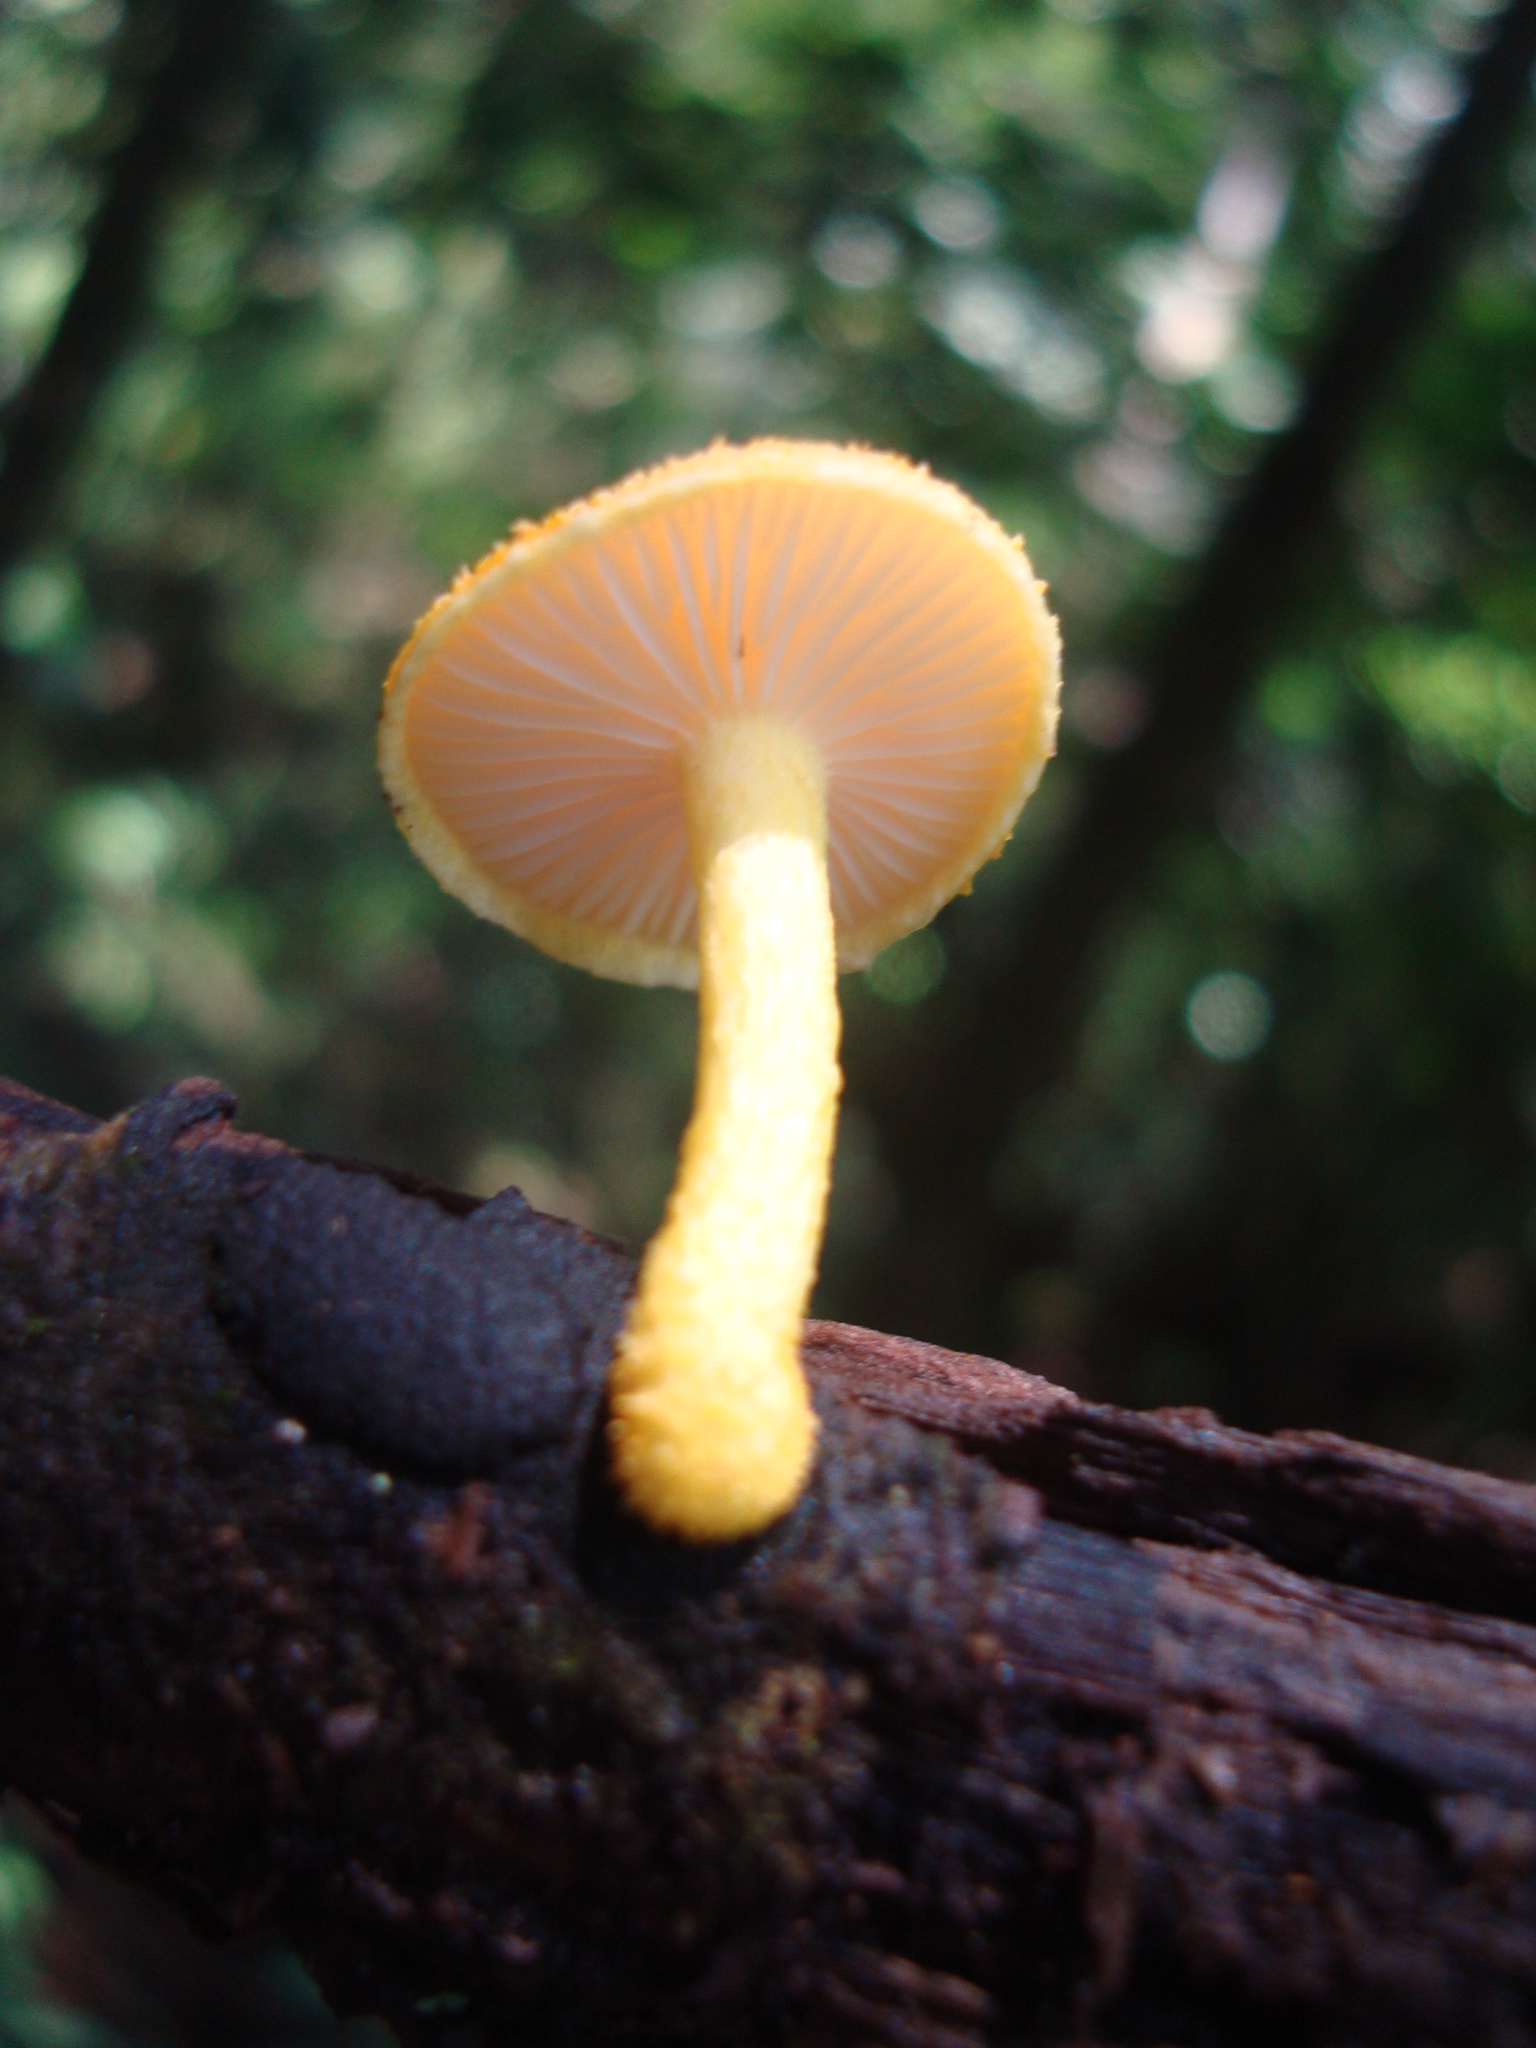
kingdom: Fungi
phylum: Basidiomycota
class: Agaricomycetes
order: Agaricales
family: Physalacriaceae
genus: Cyptotrama
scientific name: Cyptotrama asprata
